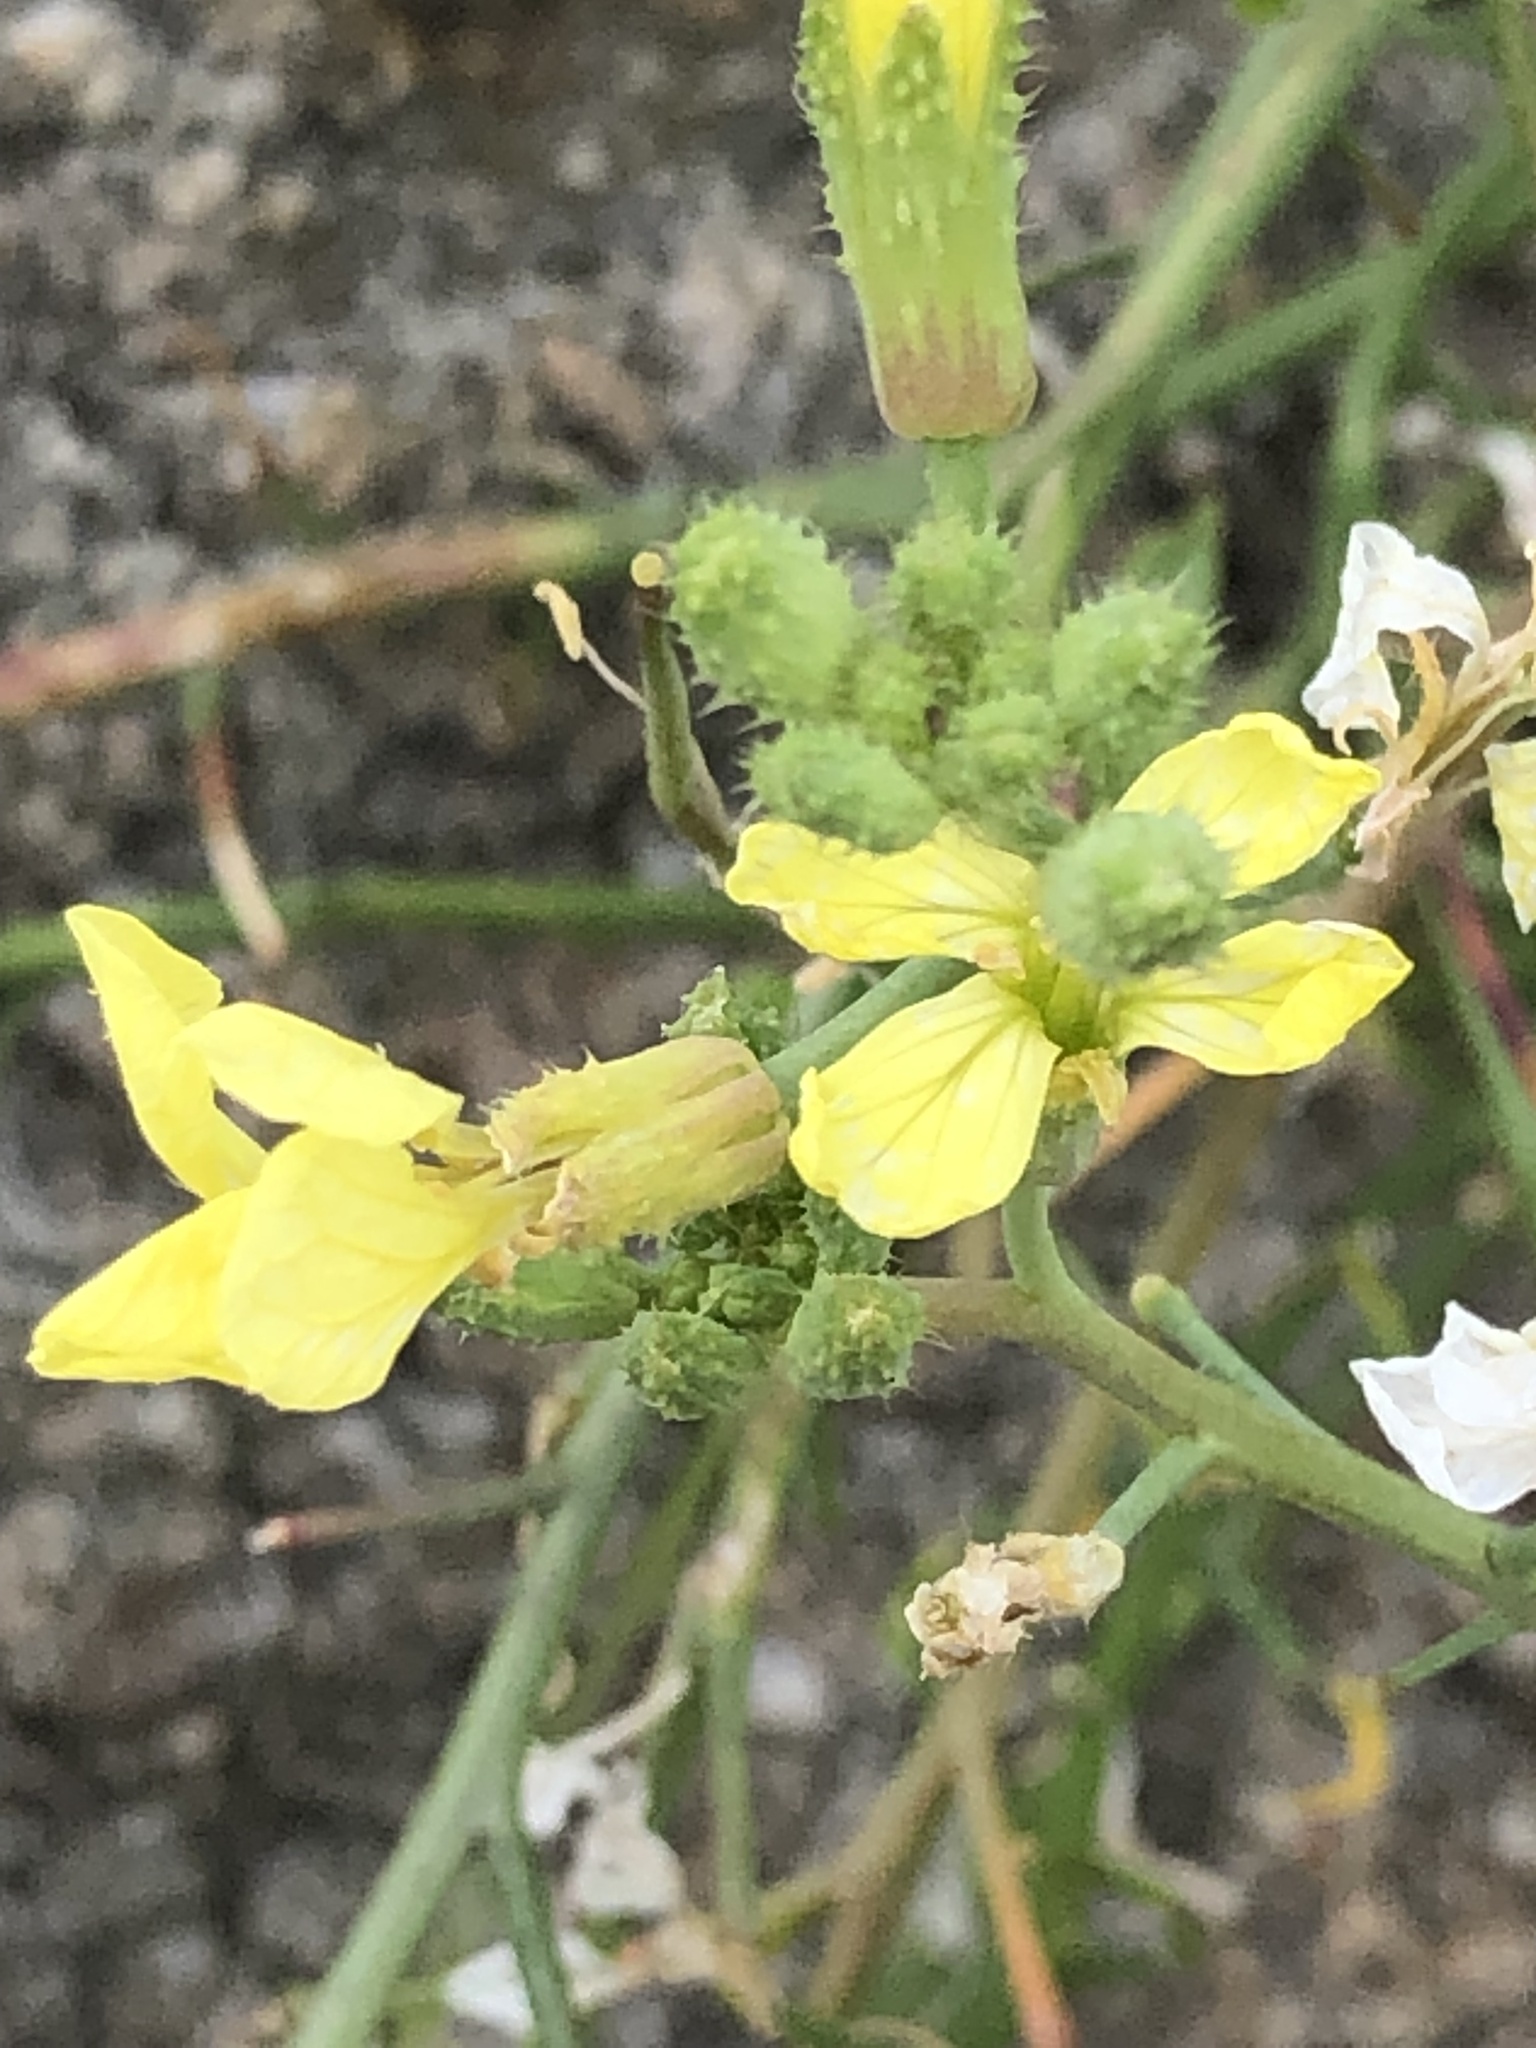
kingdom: Plantae
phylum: Tracheophyta
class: Magnoliopsida
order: Brassicales
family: Brassicaceae
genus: Raphanus
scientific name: Raphanus raphanistrum
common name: Wild radish
